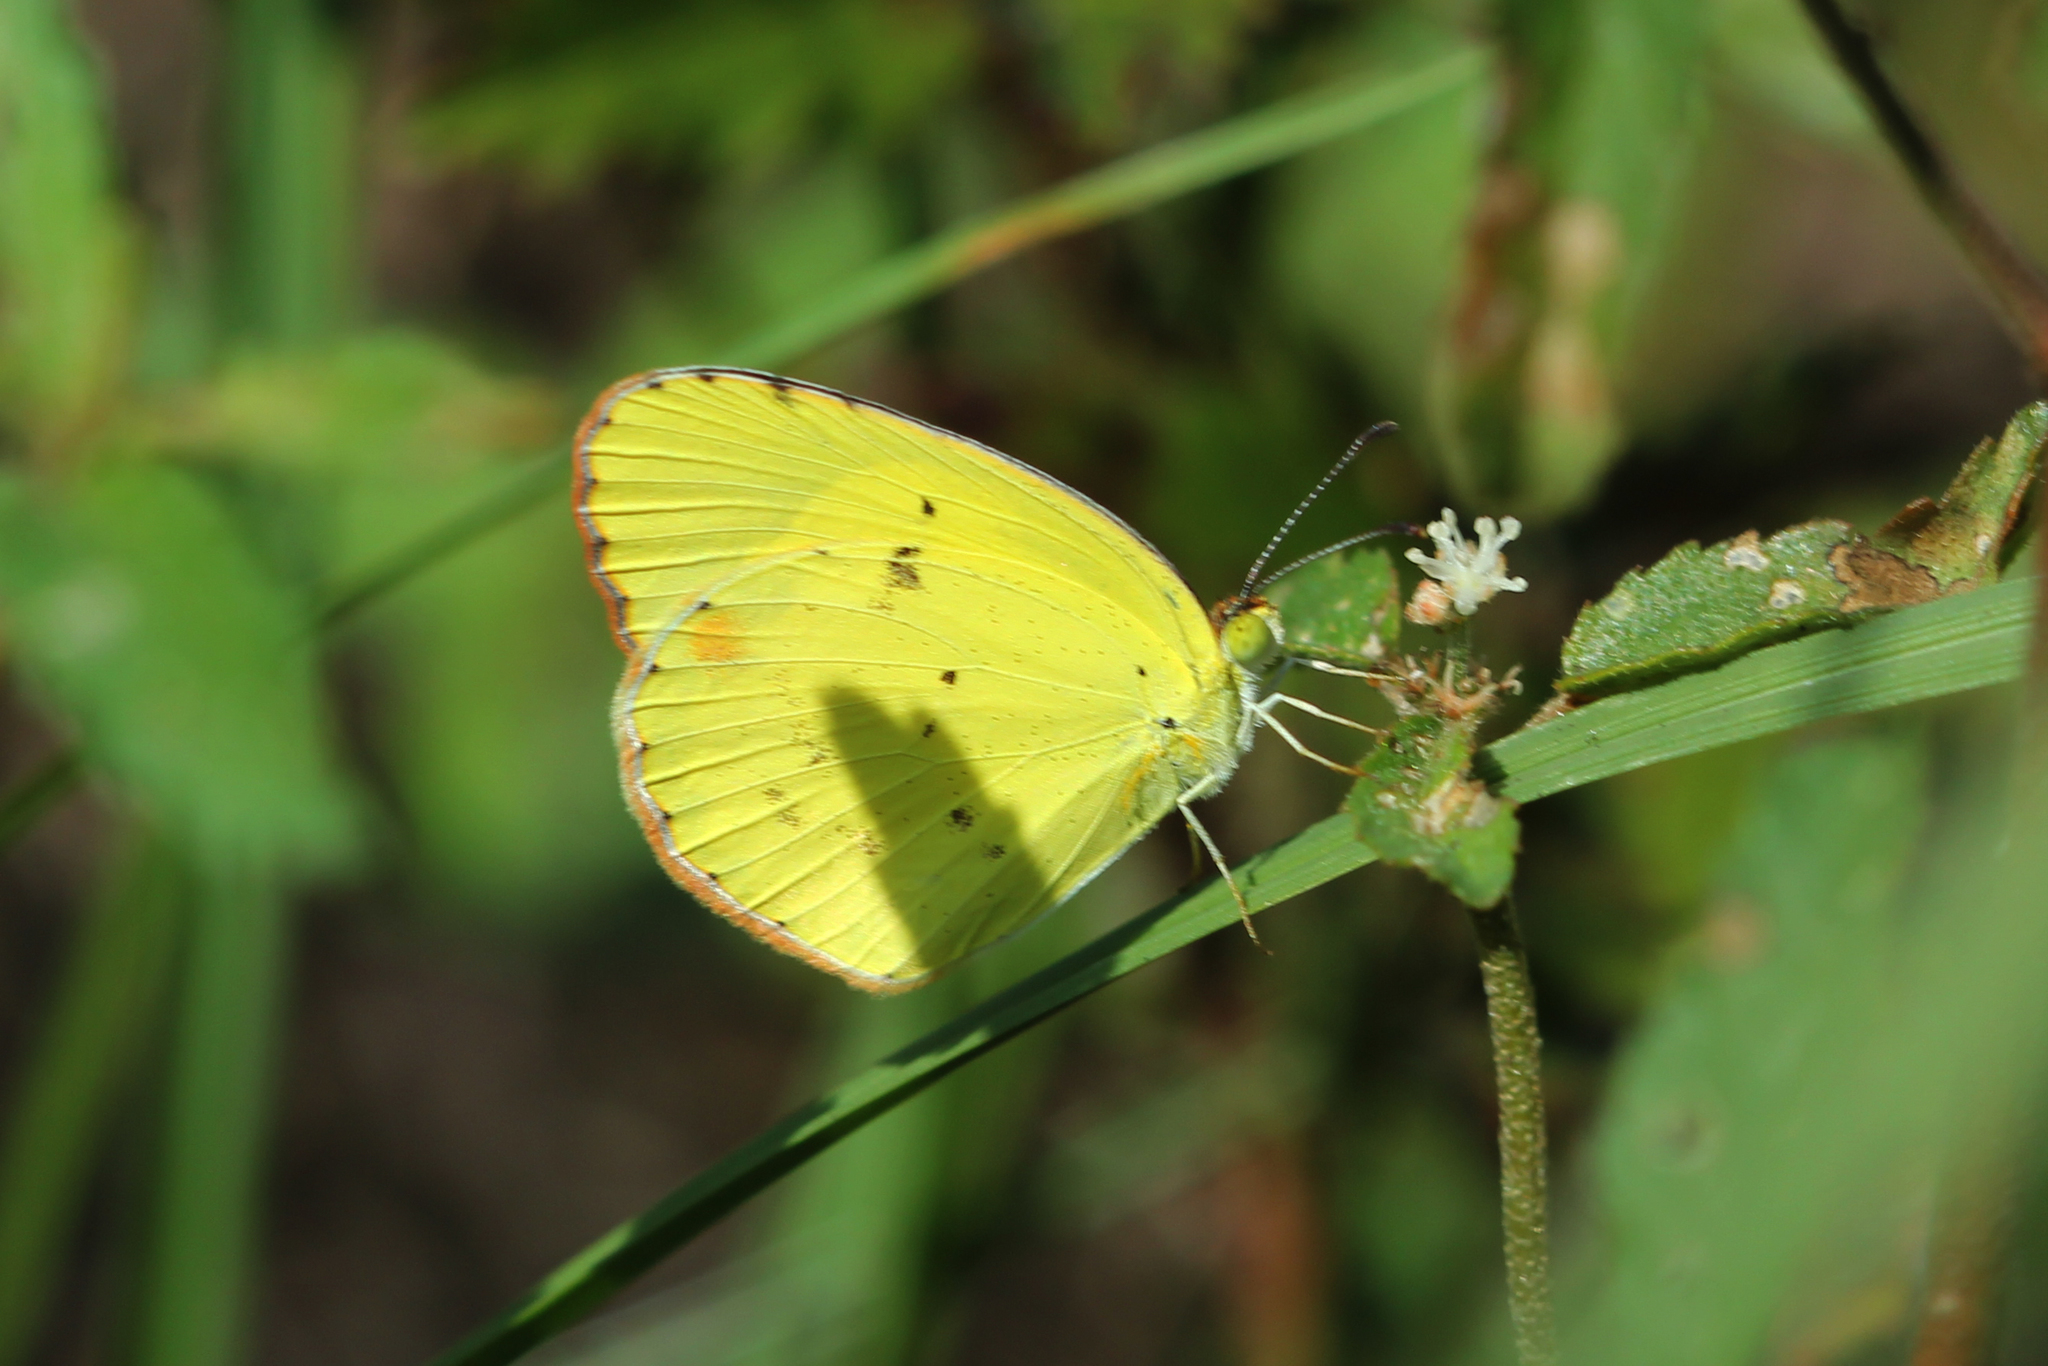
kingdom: Animalia
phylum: Arthropoda
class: Insecta
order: Lepidoptera
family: Pieridae
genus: Pyrisitia
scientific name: Pyrisitia lisa
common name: Little yellow
